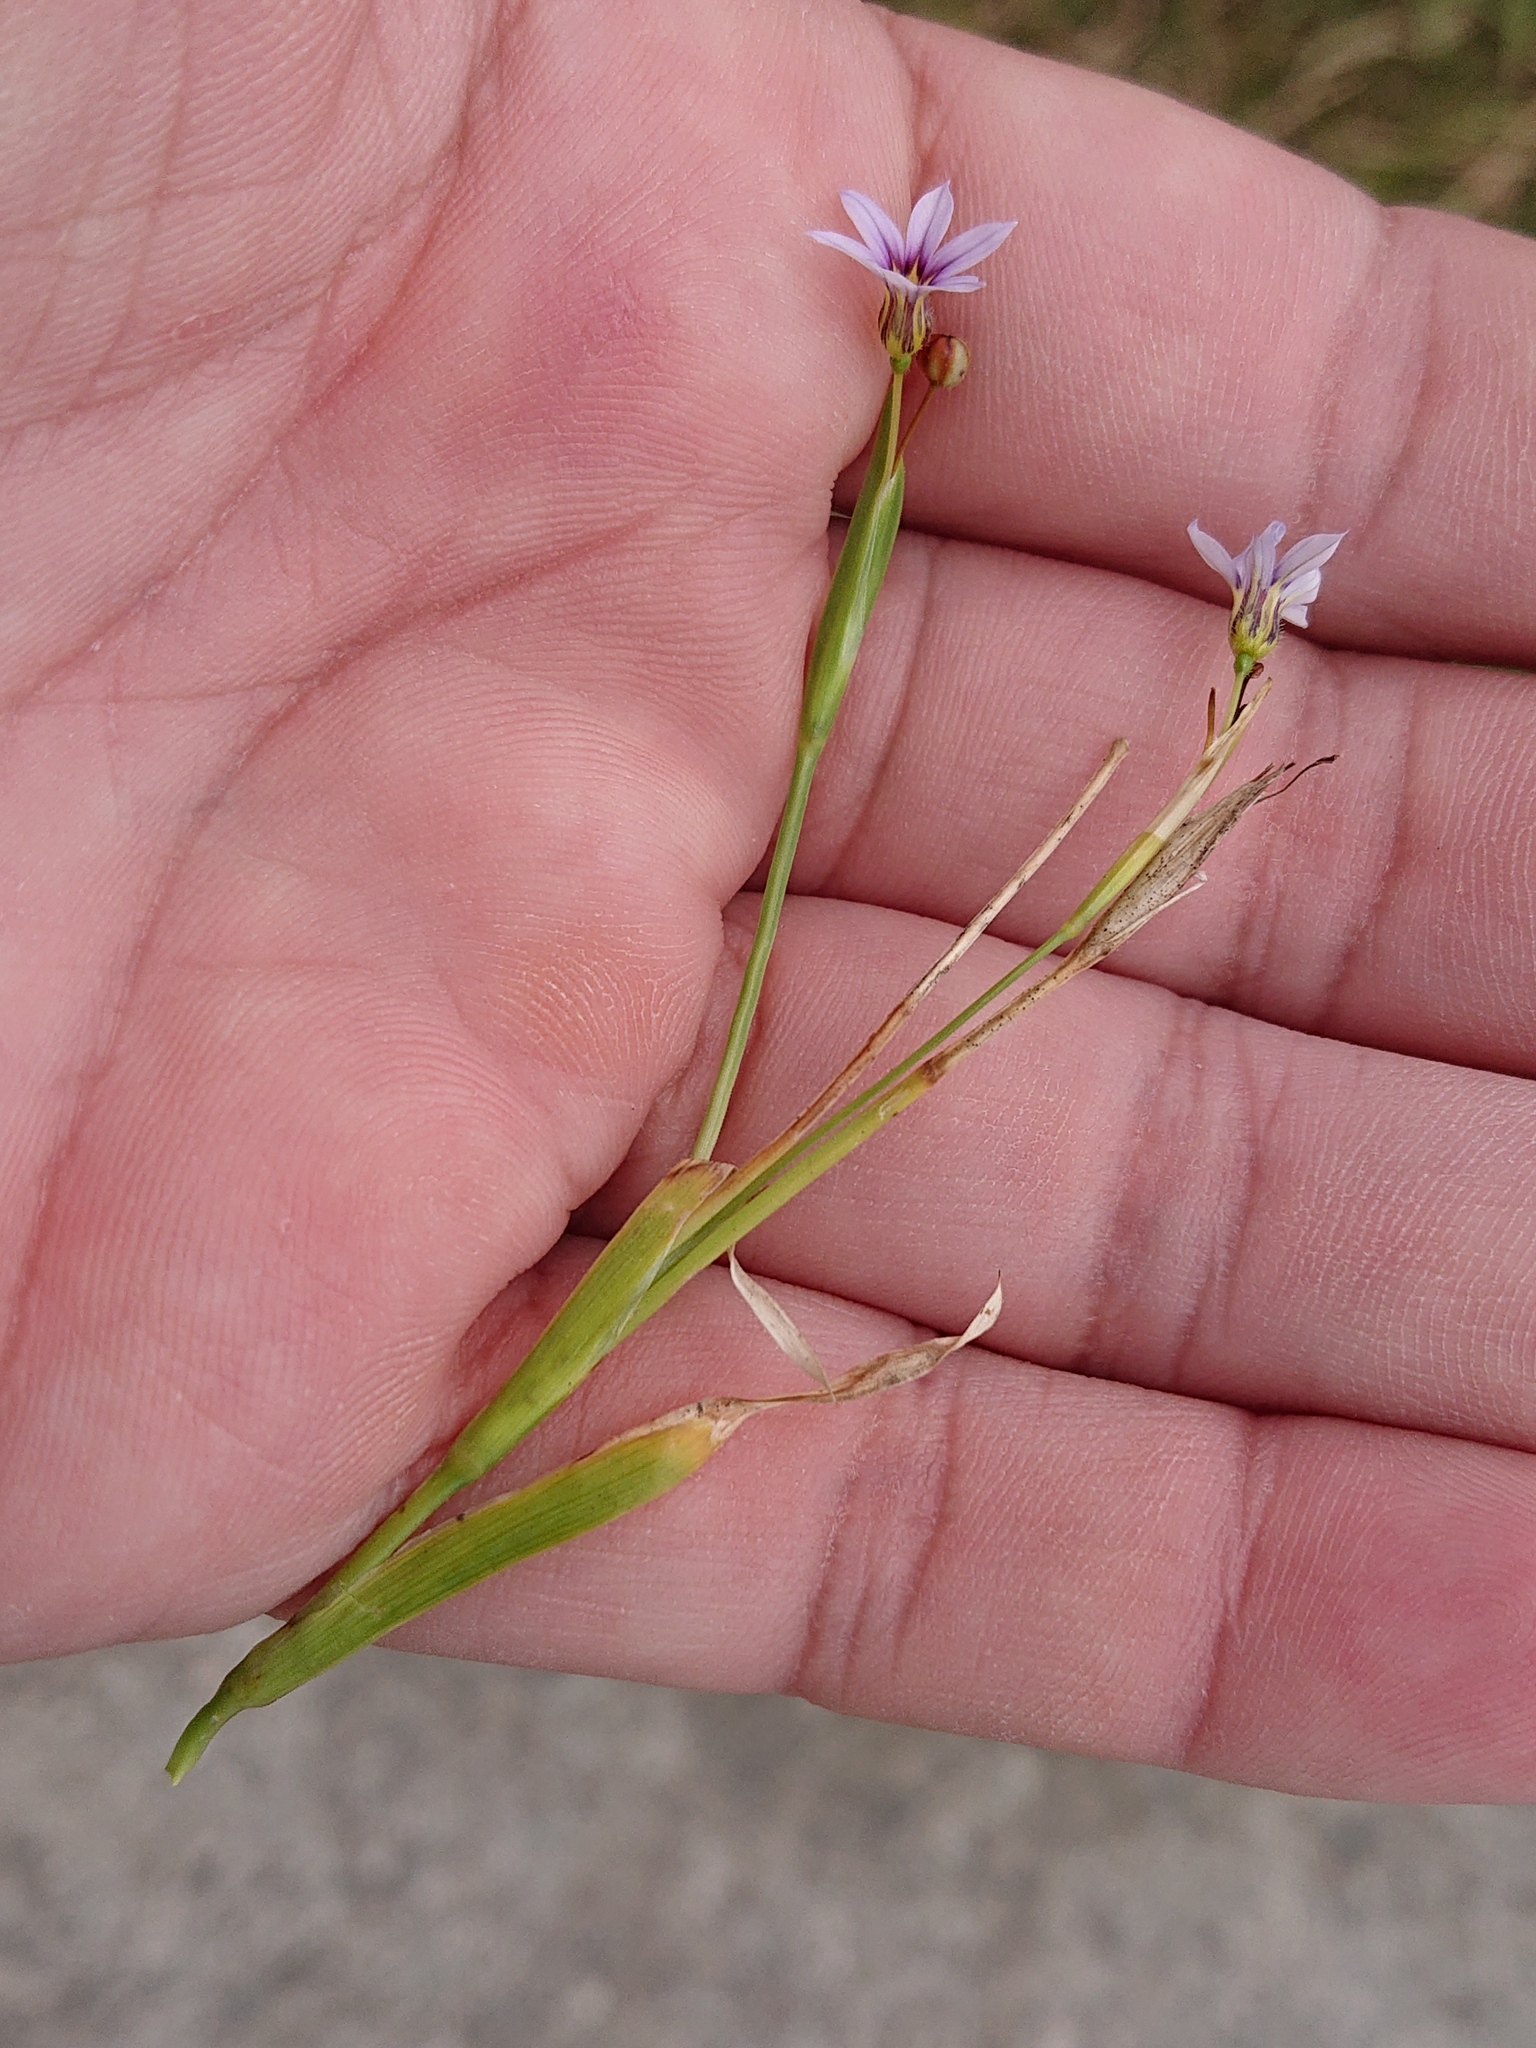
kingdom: Plantae
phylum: Tracheophyta
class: Liliopsida
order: Asparagales
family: Iridaceae
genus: Sisyrinchium
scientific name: Sisyrinchium micranthum
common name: Bermuda pigroot
